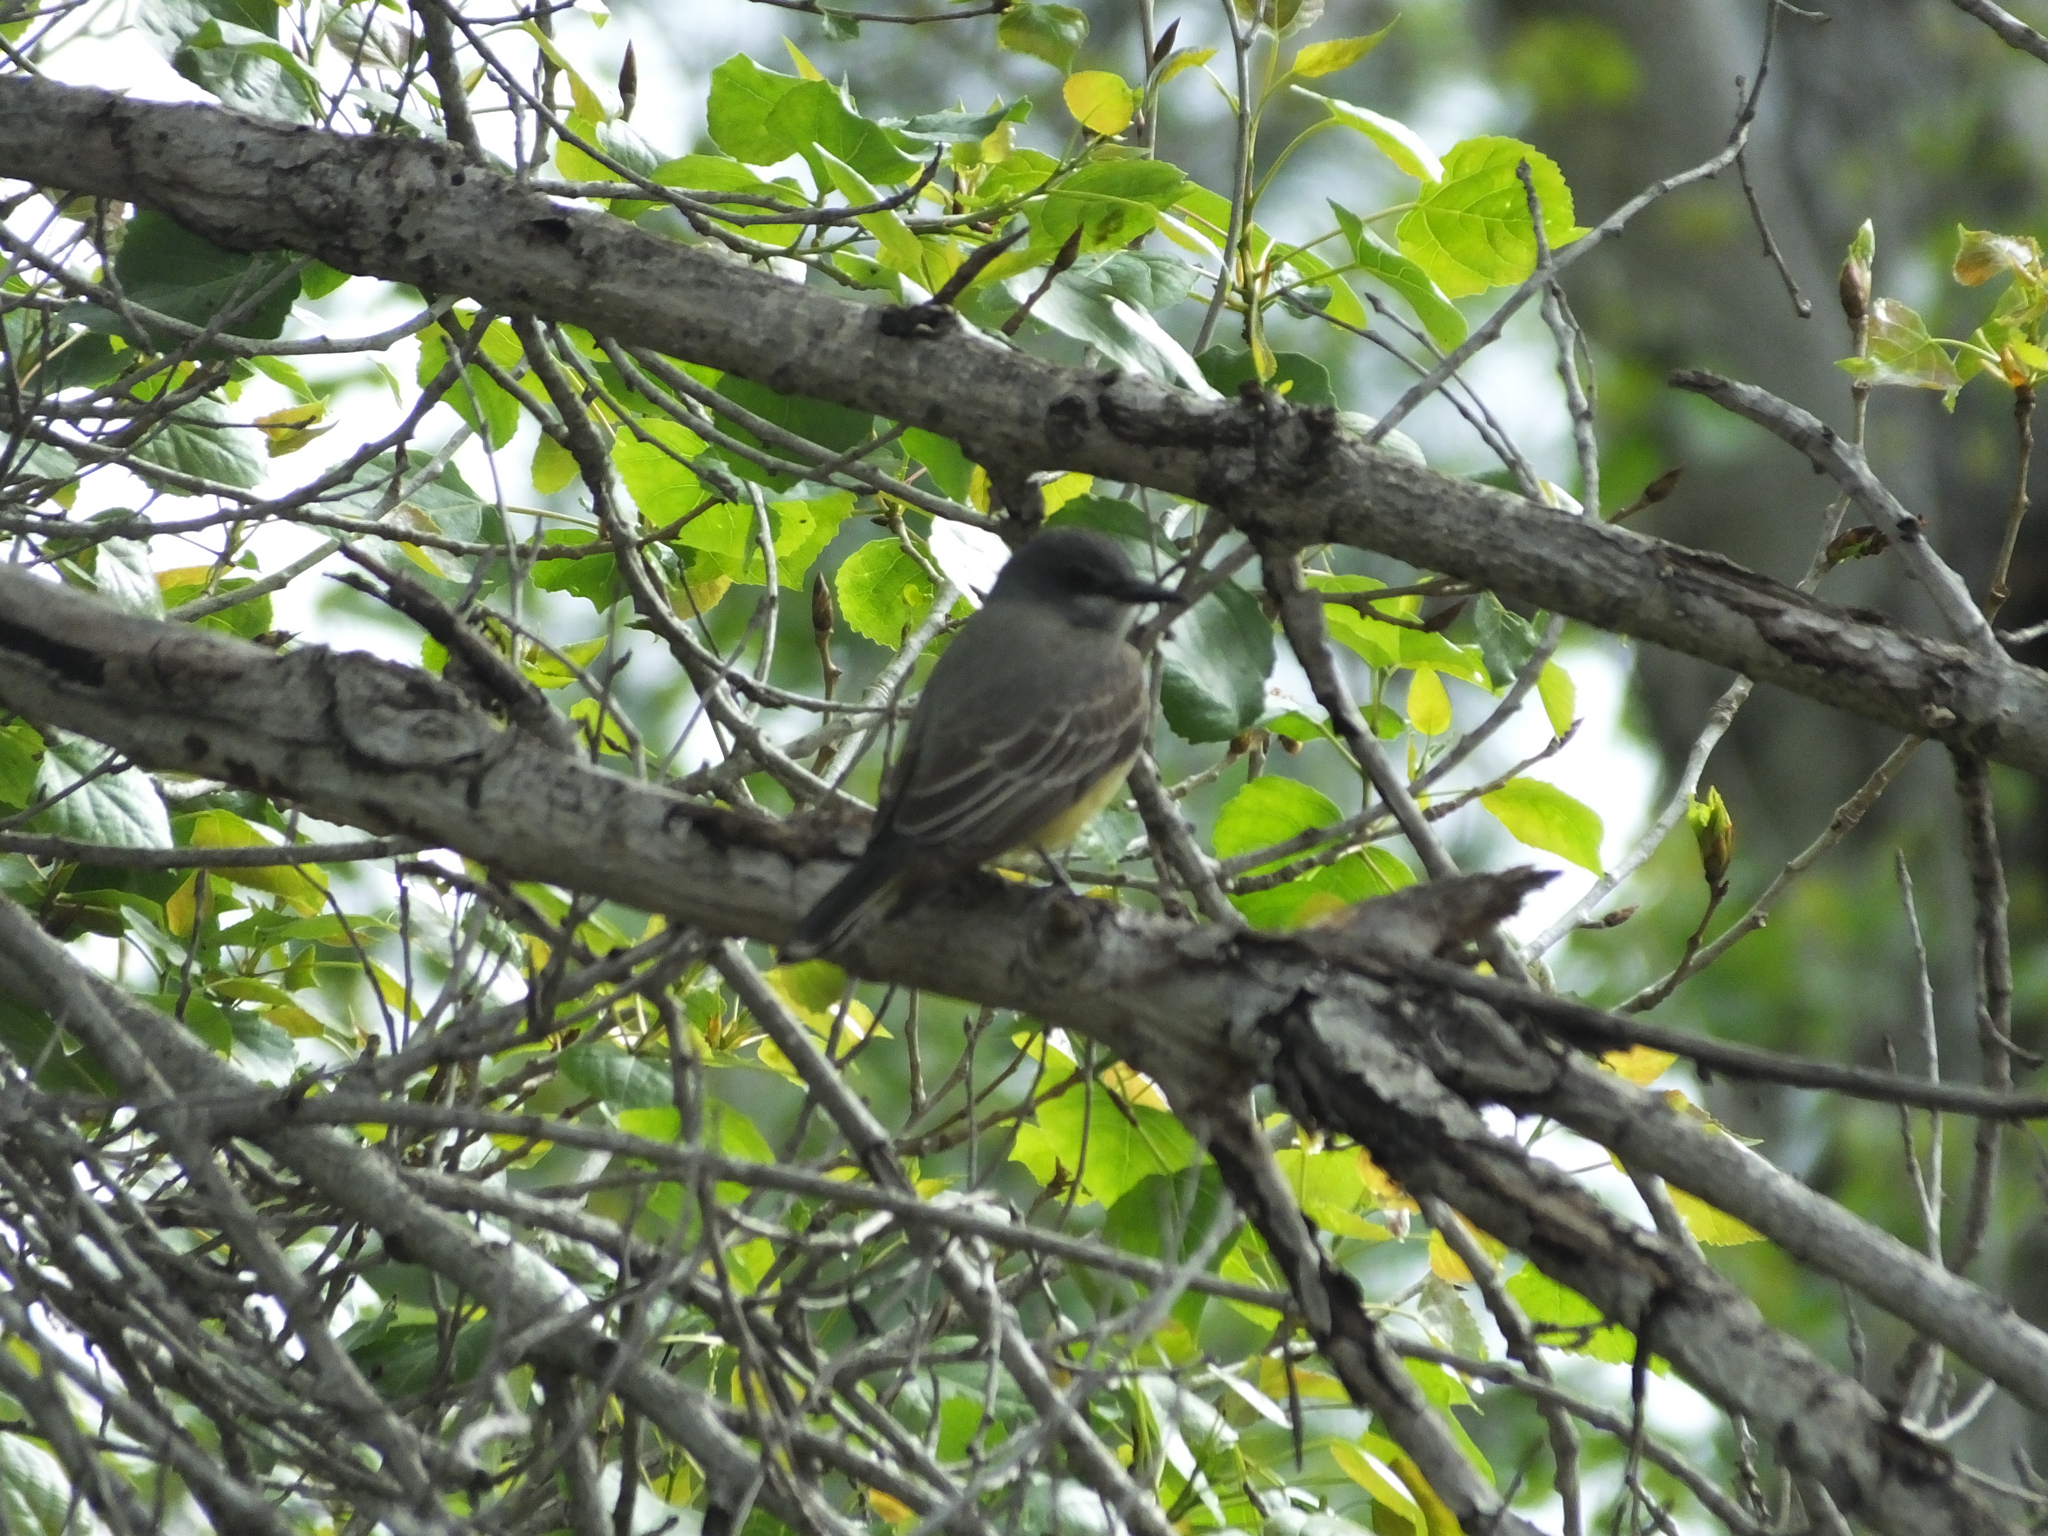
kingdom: Animalia
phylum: Chordata
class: Aves
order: Passeriformes
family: Tyrannidae
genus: Tyrannus
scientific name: Tyrannus vociferans
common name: Cassin's kingbird
